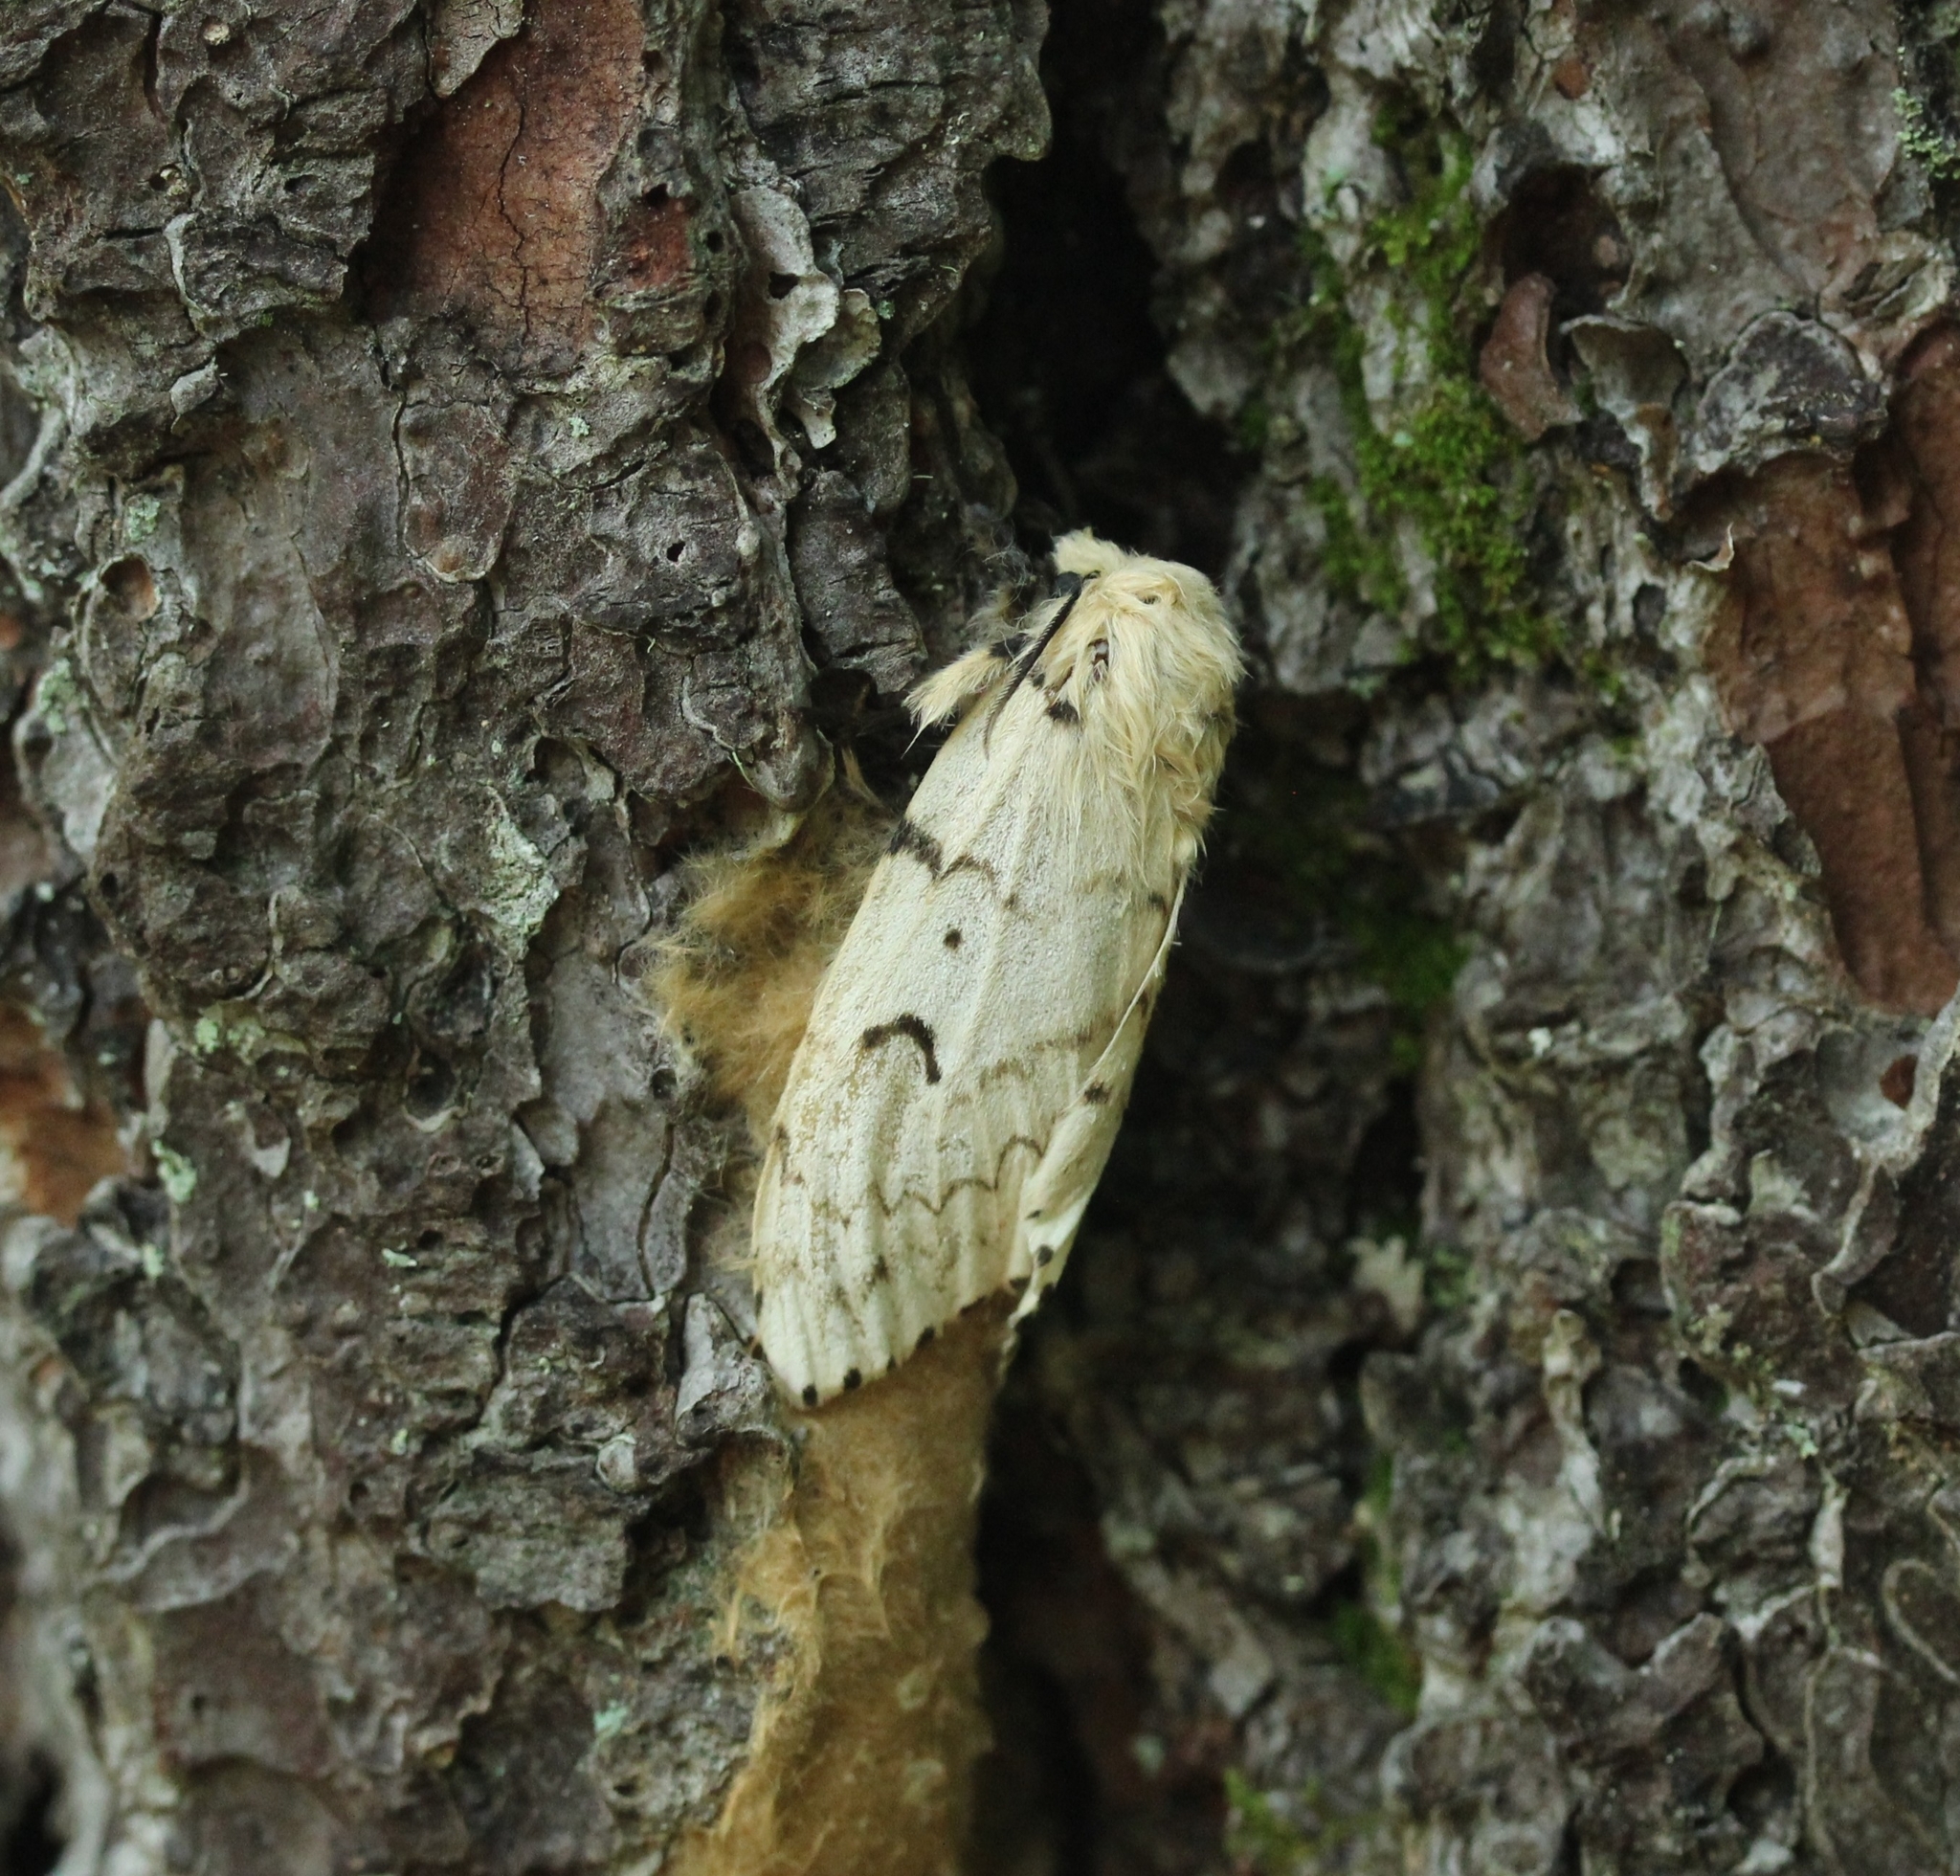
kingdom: Animalia
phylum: Arthropoda
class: Insecta
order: Lepidoptera
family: Erebidae
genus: Lymantria
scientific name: Lymantria dispar
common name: Gypsy moth
